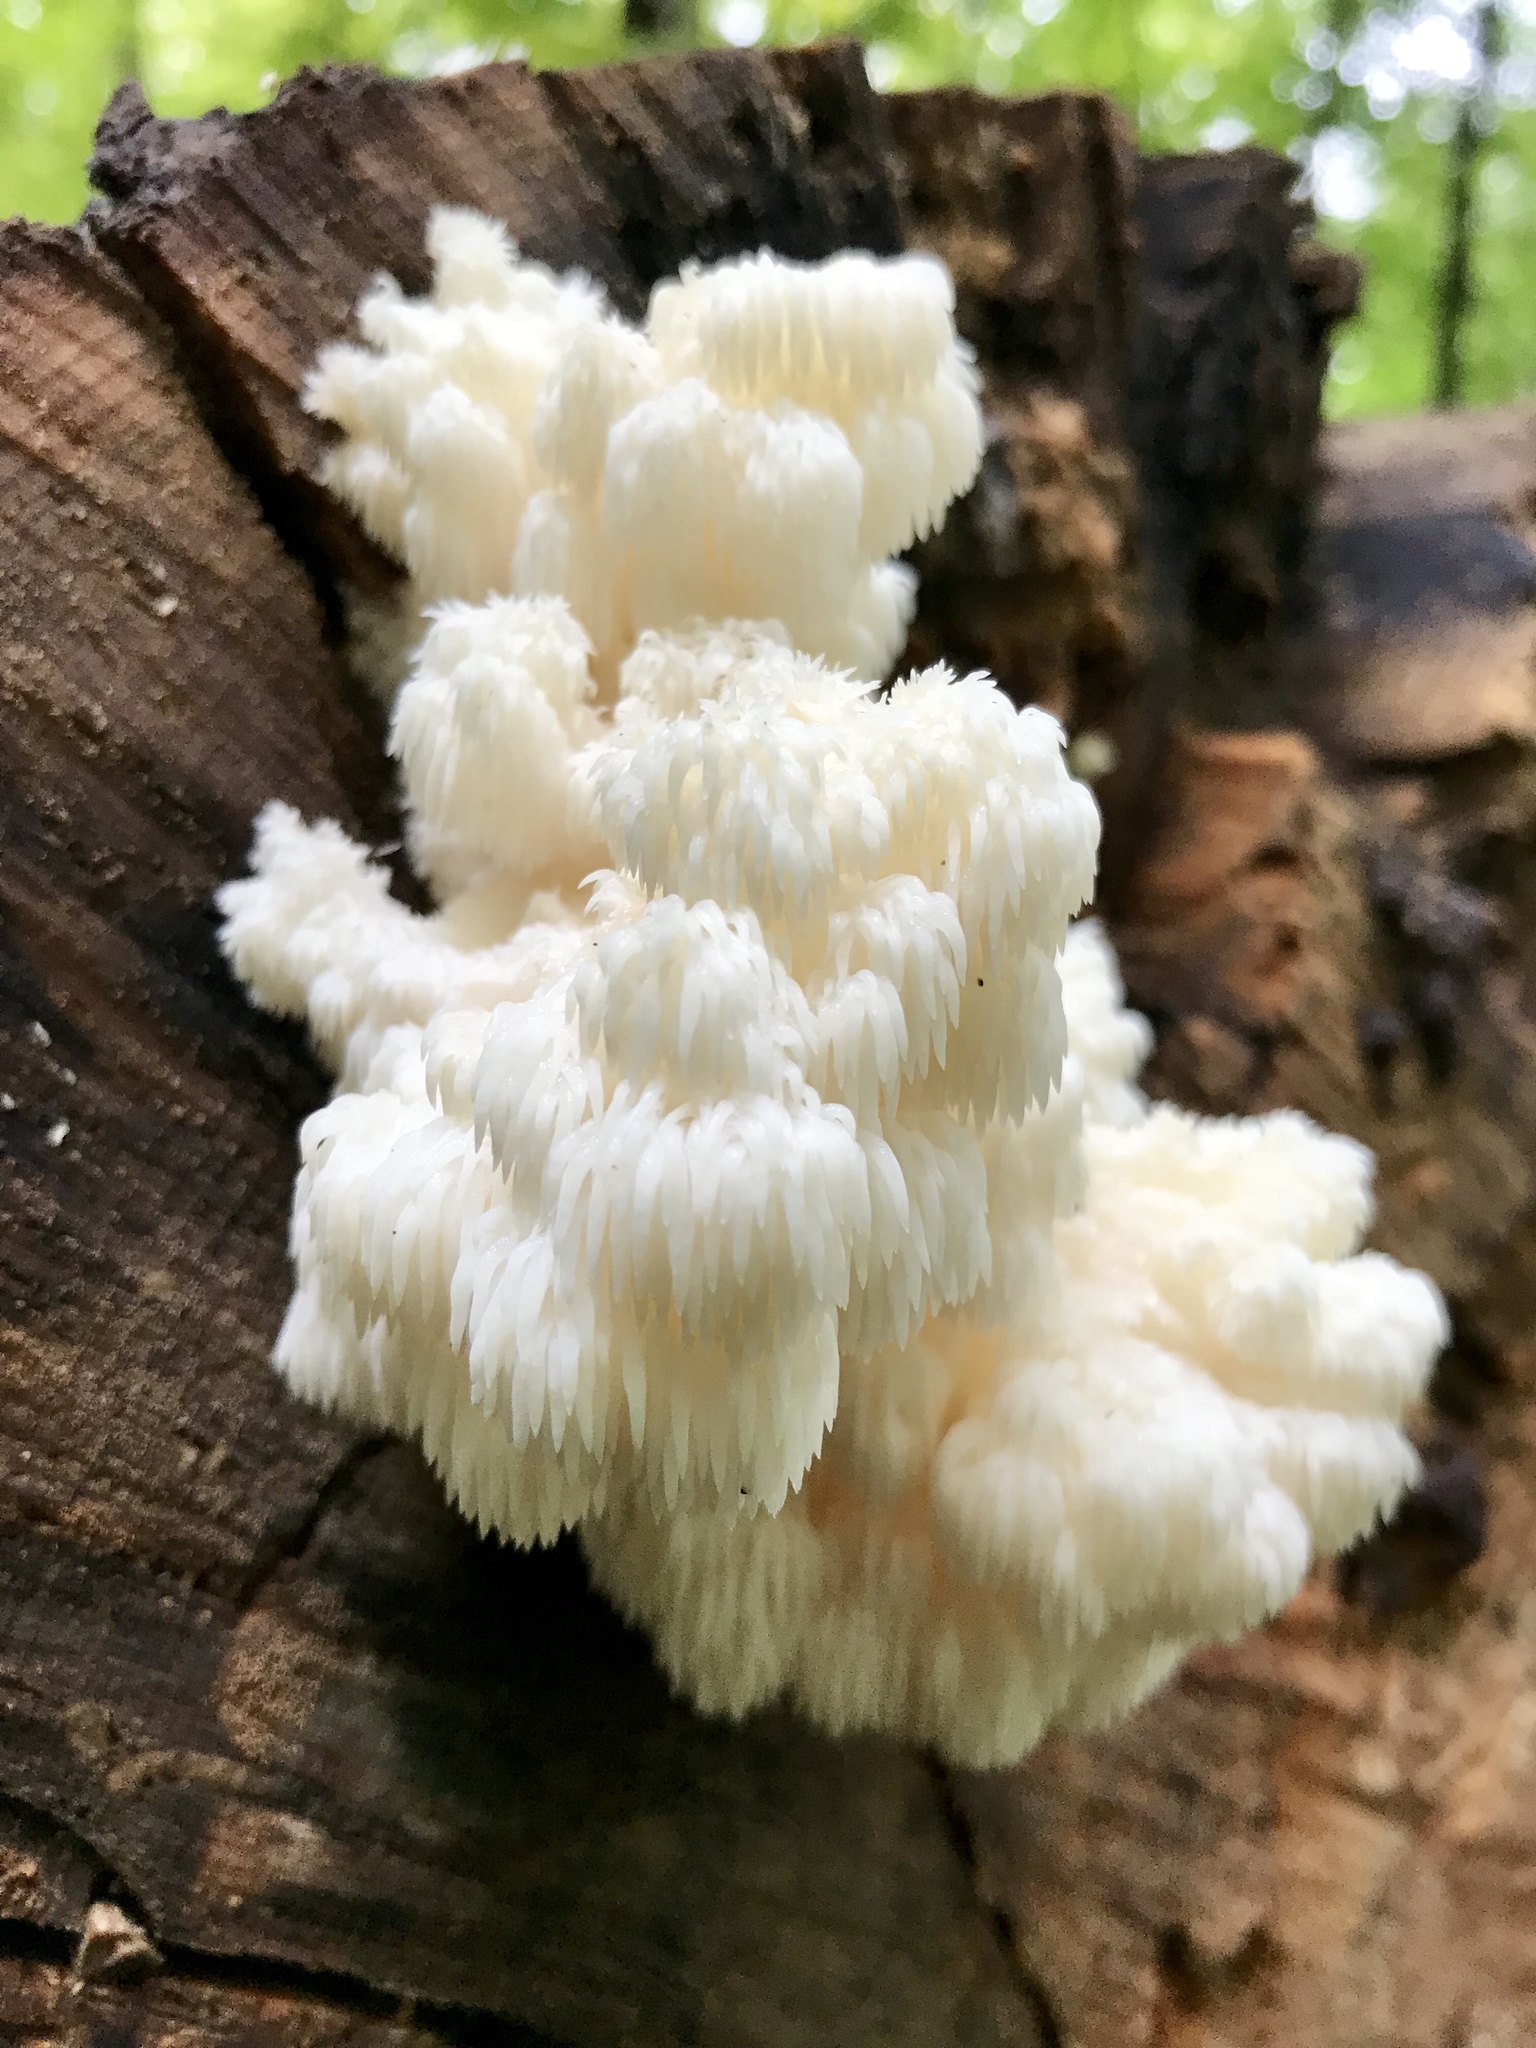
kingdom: Fungi
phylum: Basidiomycota
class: Agaricomycetes
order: Russulales
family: Hericiaceae
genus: Hericium
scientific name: Hericium americanum
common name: Bear's head tooth
